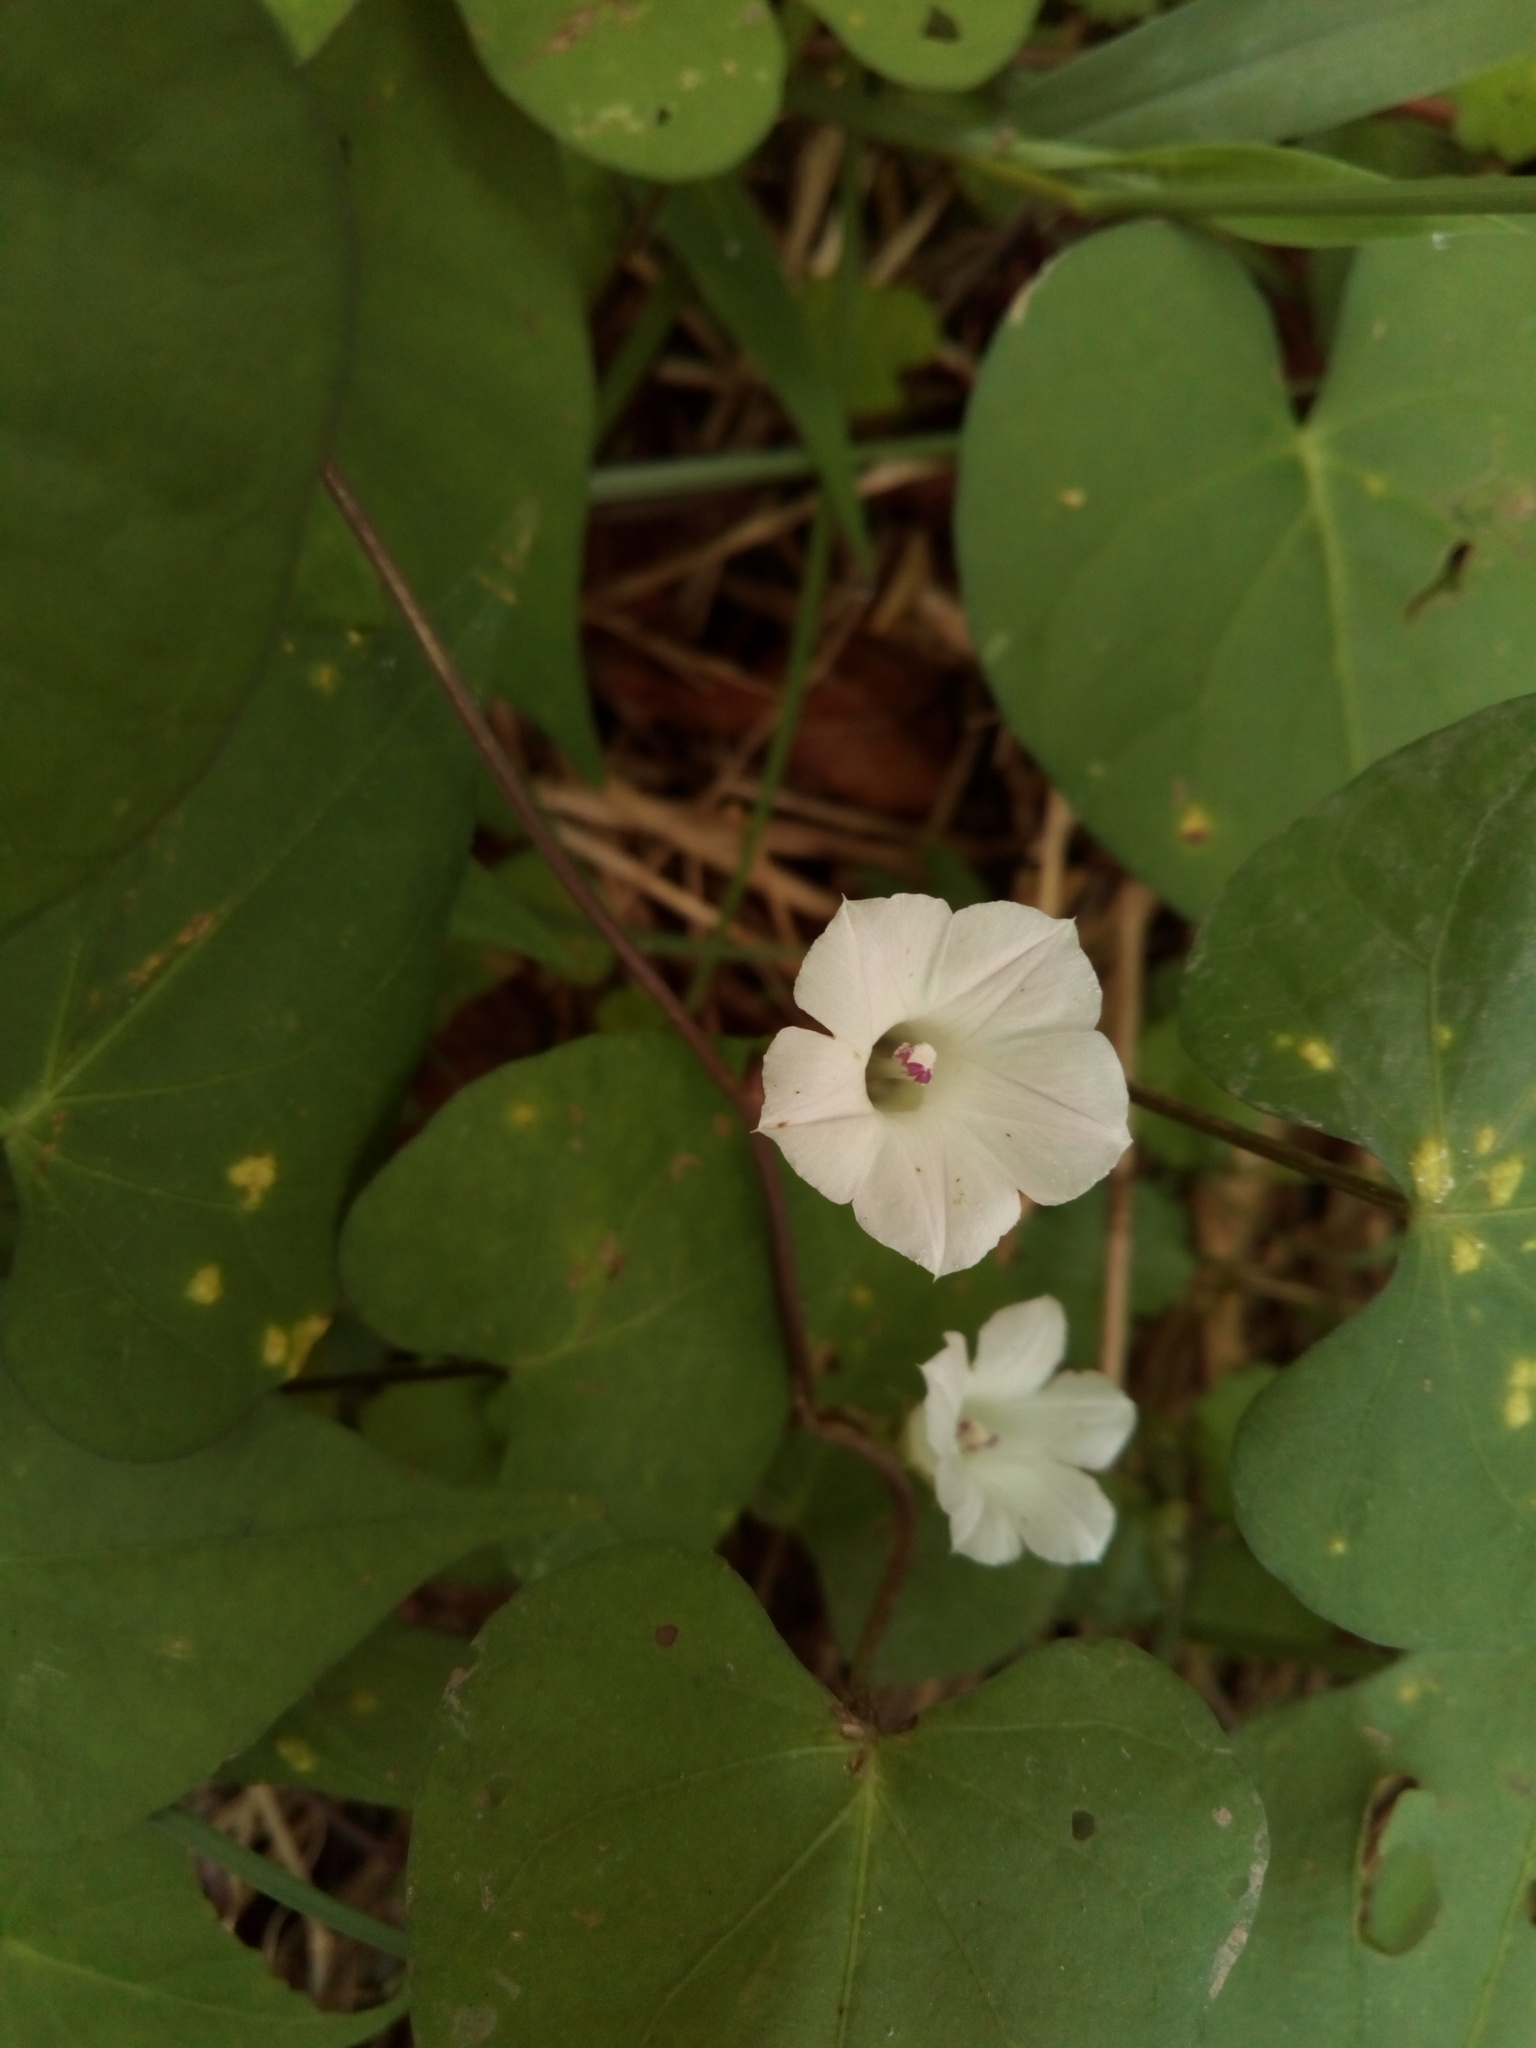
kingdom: Plantae
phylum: Tracheophyta
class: Magnoliopsida
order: Solanales
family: Convolvulaceae
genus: Ipomoea
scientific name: Ipomoea lacunosa
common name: White morning-glory
